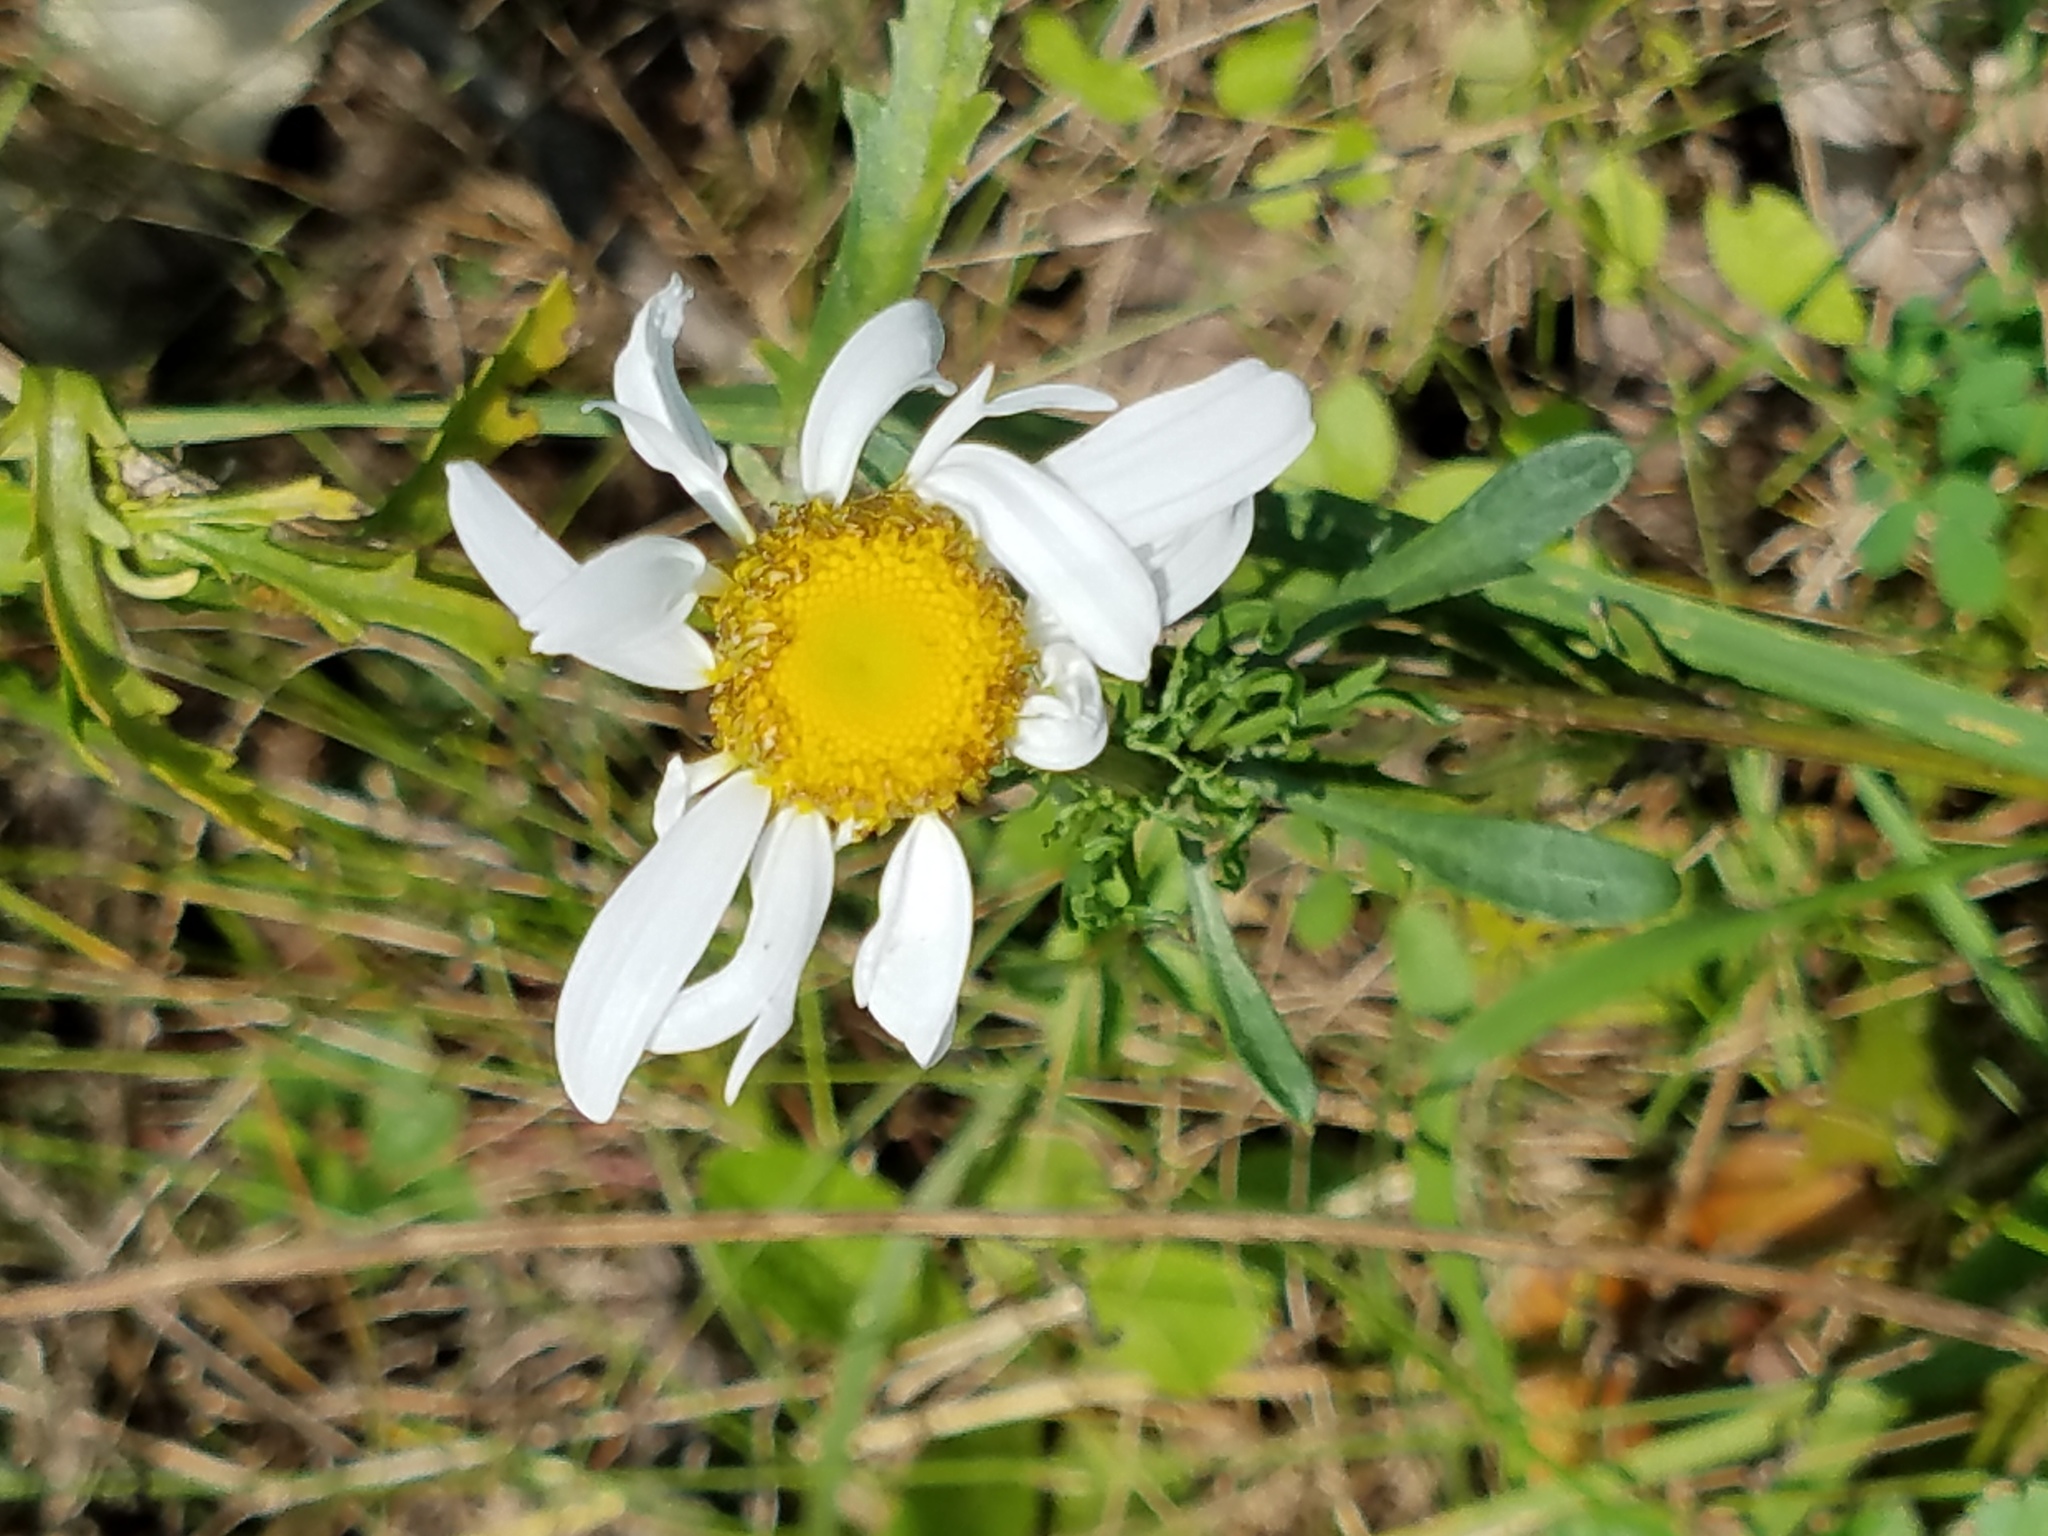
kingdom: Plantae
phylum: Tracheophyta
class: Magnoliopsida
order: Asterales
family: Asteraceae
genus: Leucanthemum
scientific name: Leucanthemum vulgare
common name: Oxeye daisy
